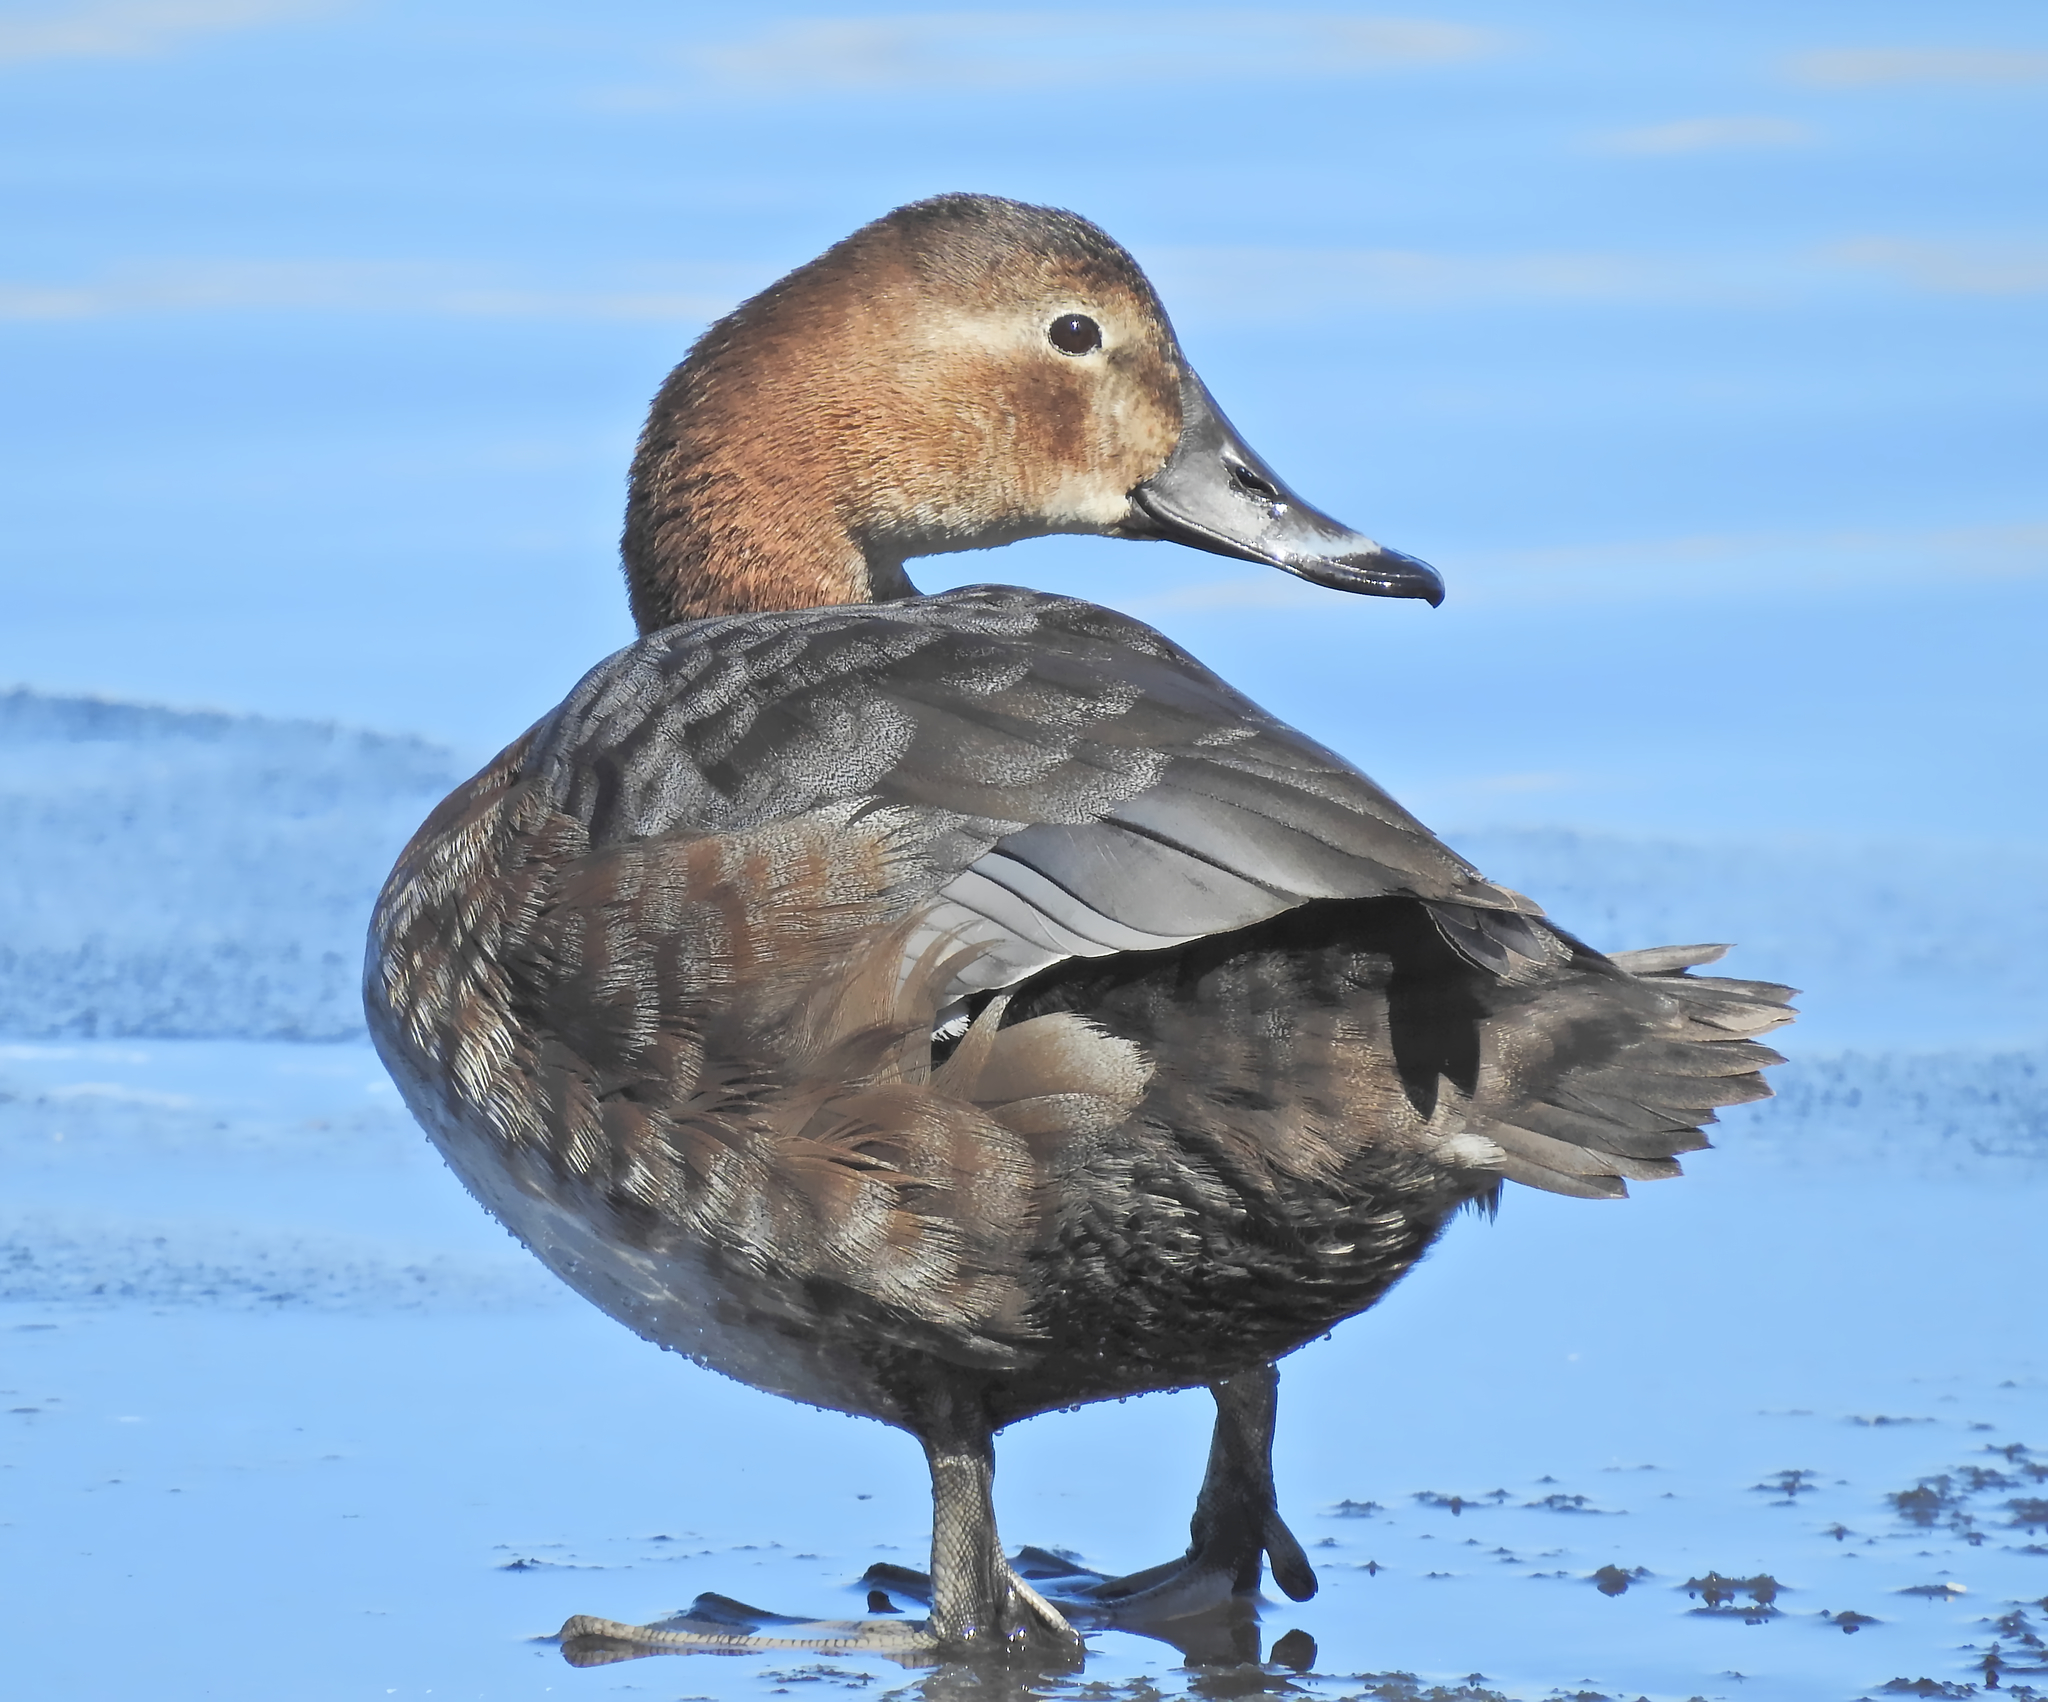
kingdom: Animalia
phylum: Chordata
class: Aves
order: Anseriformes
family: Anatidae
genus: Aythya
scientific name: Aythya ferina
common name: Common pochard
